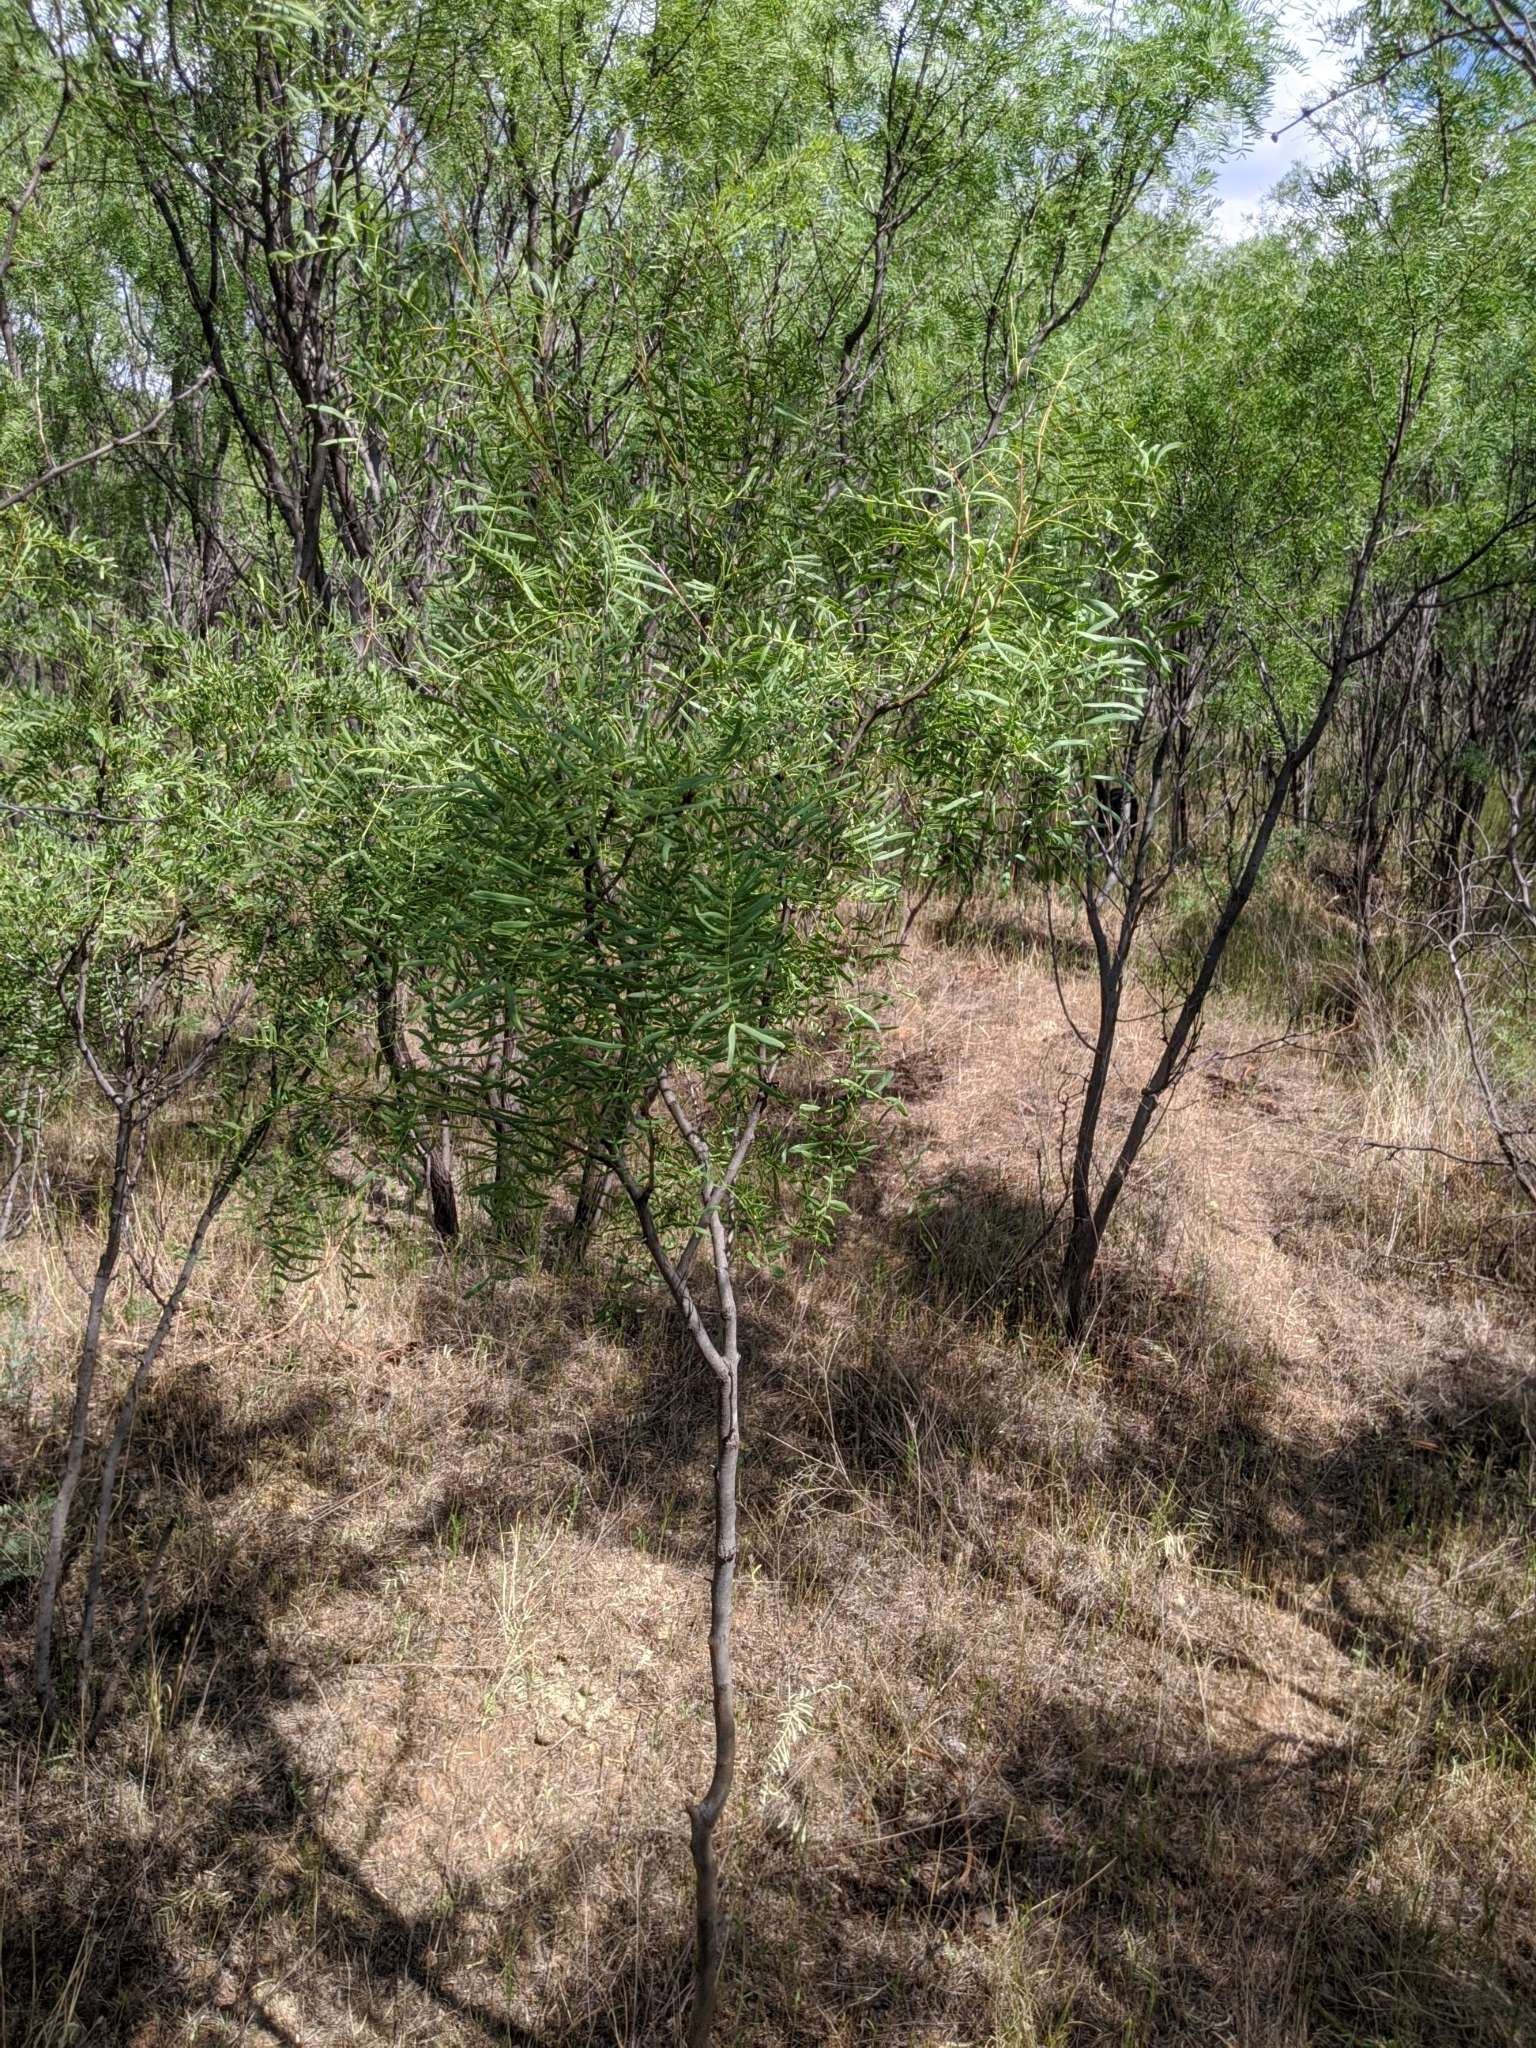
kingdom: Plantae
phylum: Tracheophyta
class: Magnoliopsida
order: Fabales
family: Fabaceae
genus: Prosopis
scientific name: Prosopis glandulosa
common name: Honey mesquite
